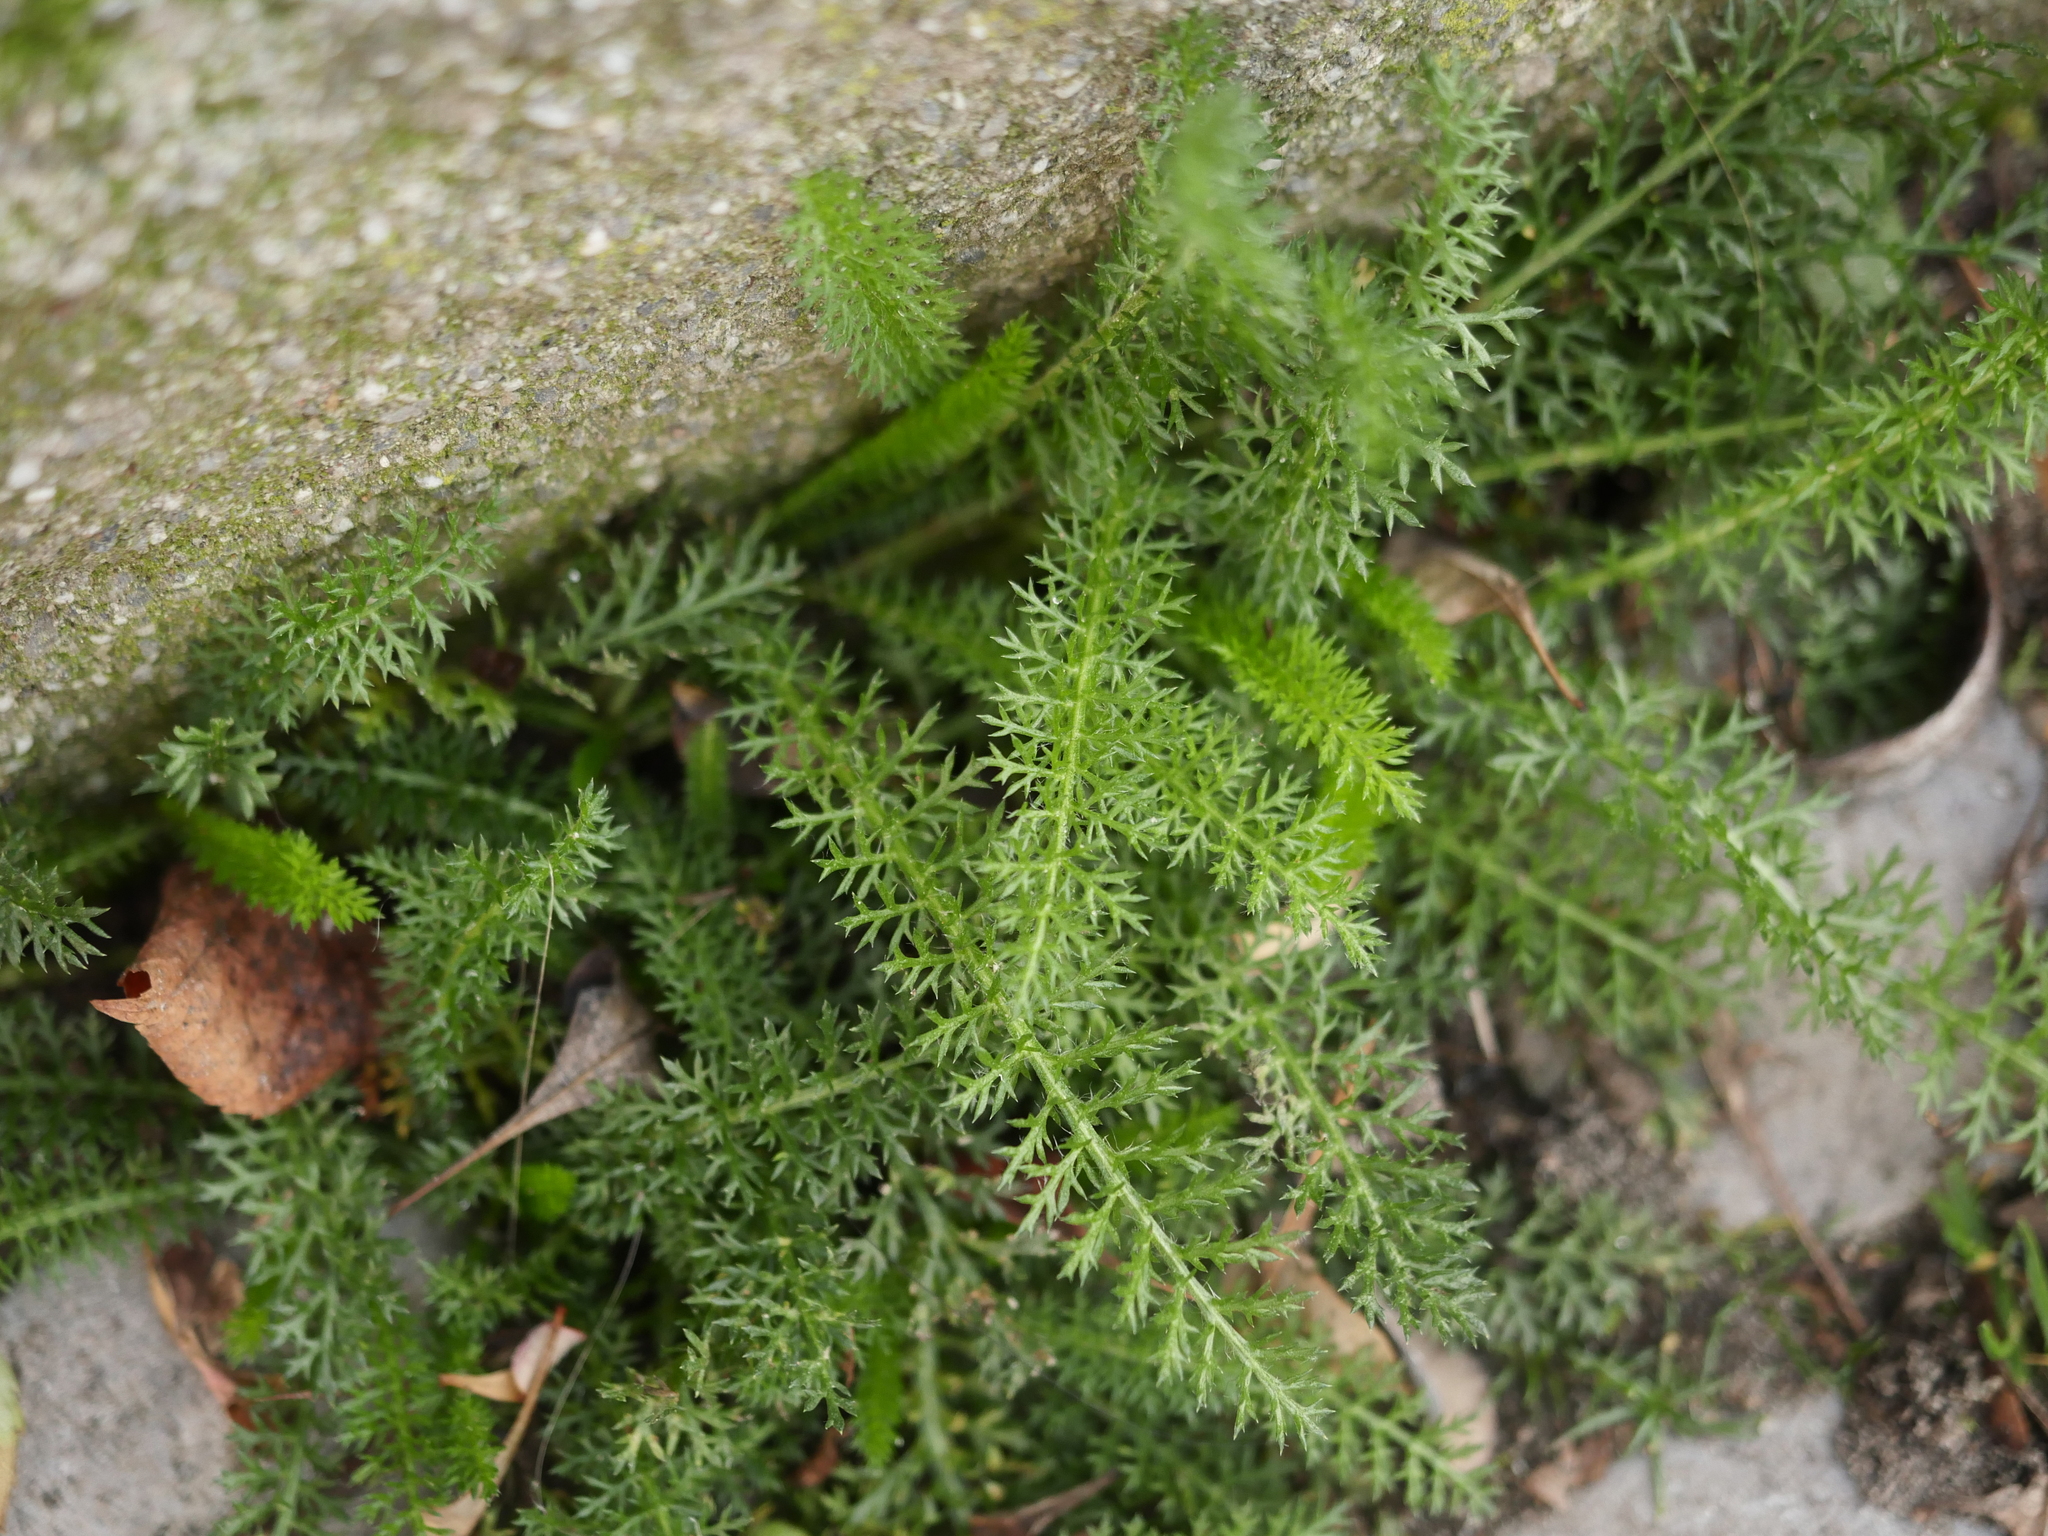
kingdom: Plantae
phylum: Tracheophyta
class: Magnoliopsida
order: Asterales
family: Asteraceae
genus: Achillea
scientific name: Achillea millefolium
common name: Yarrow
